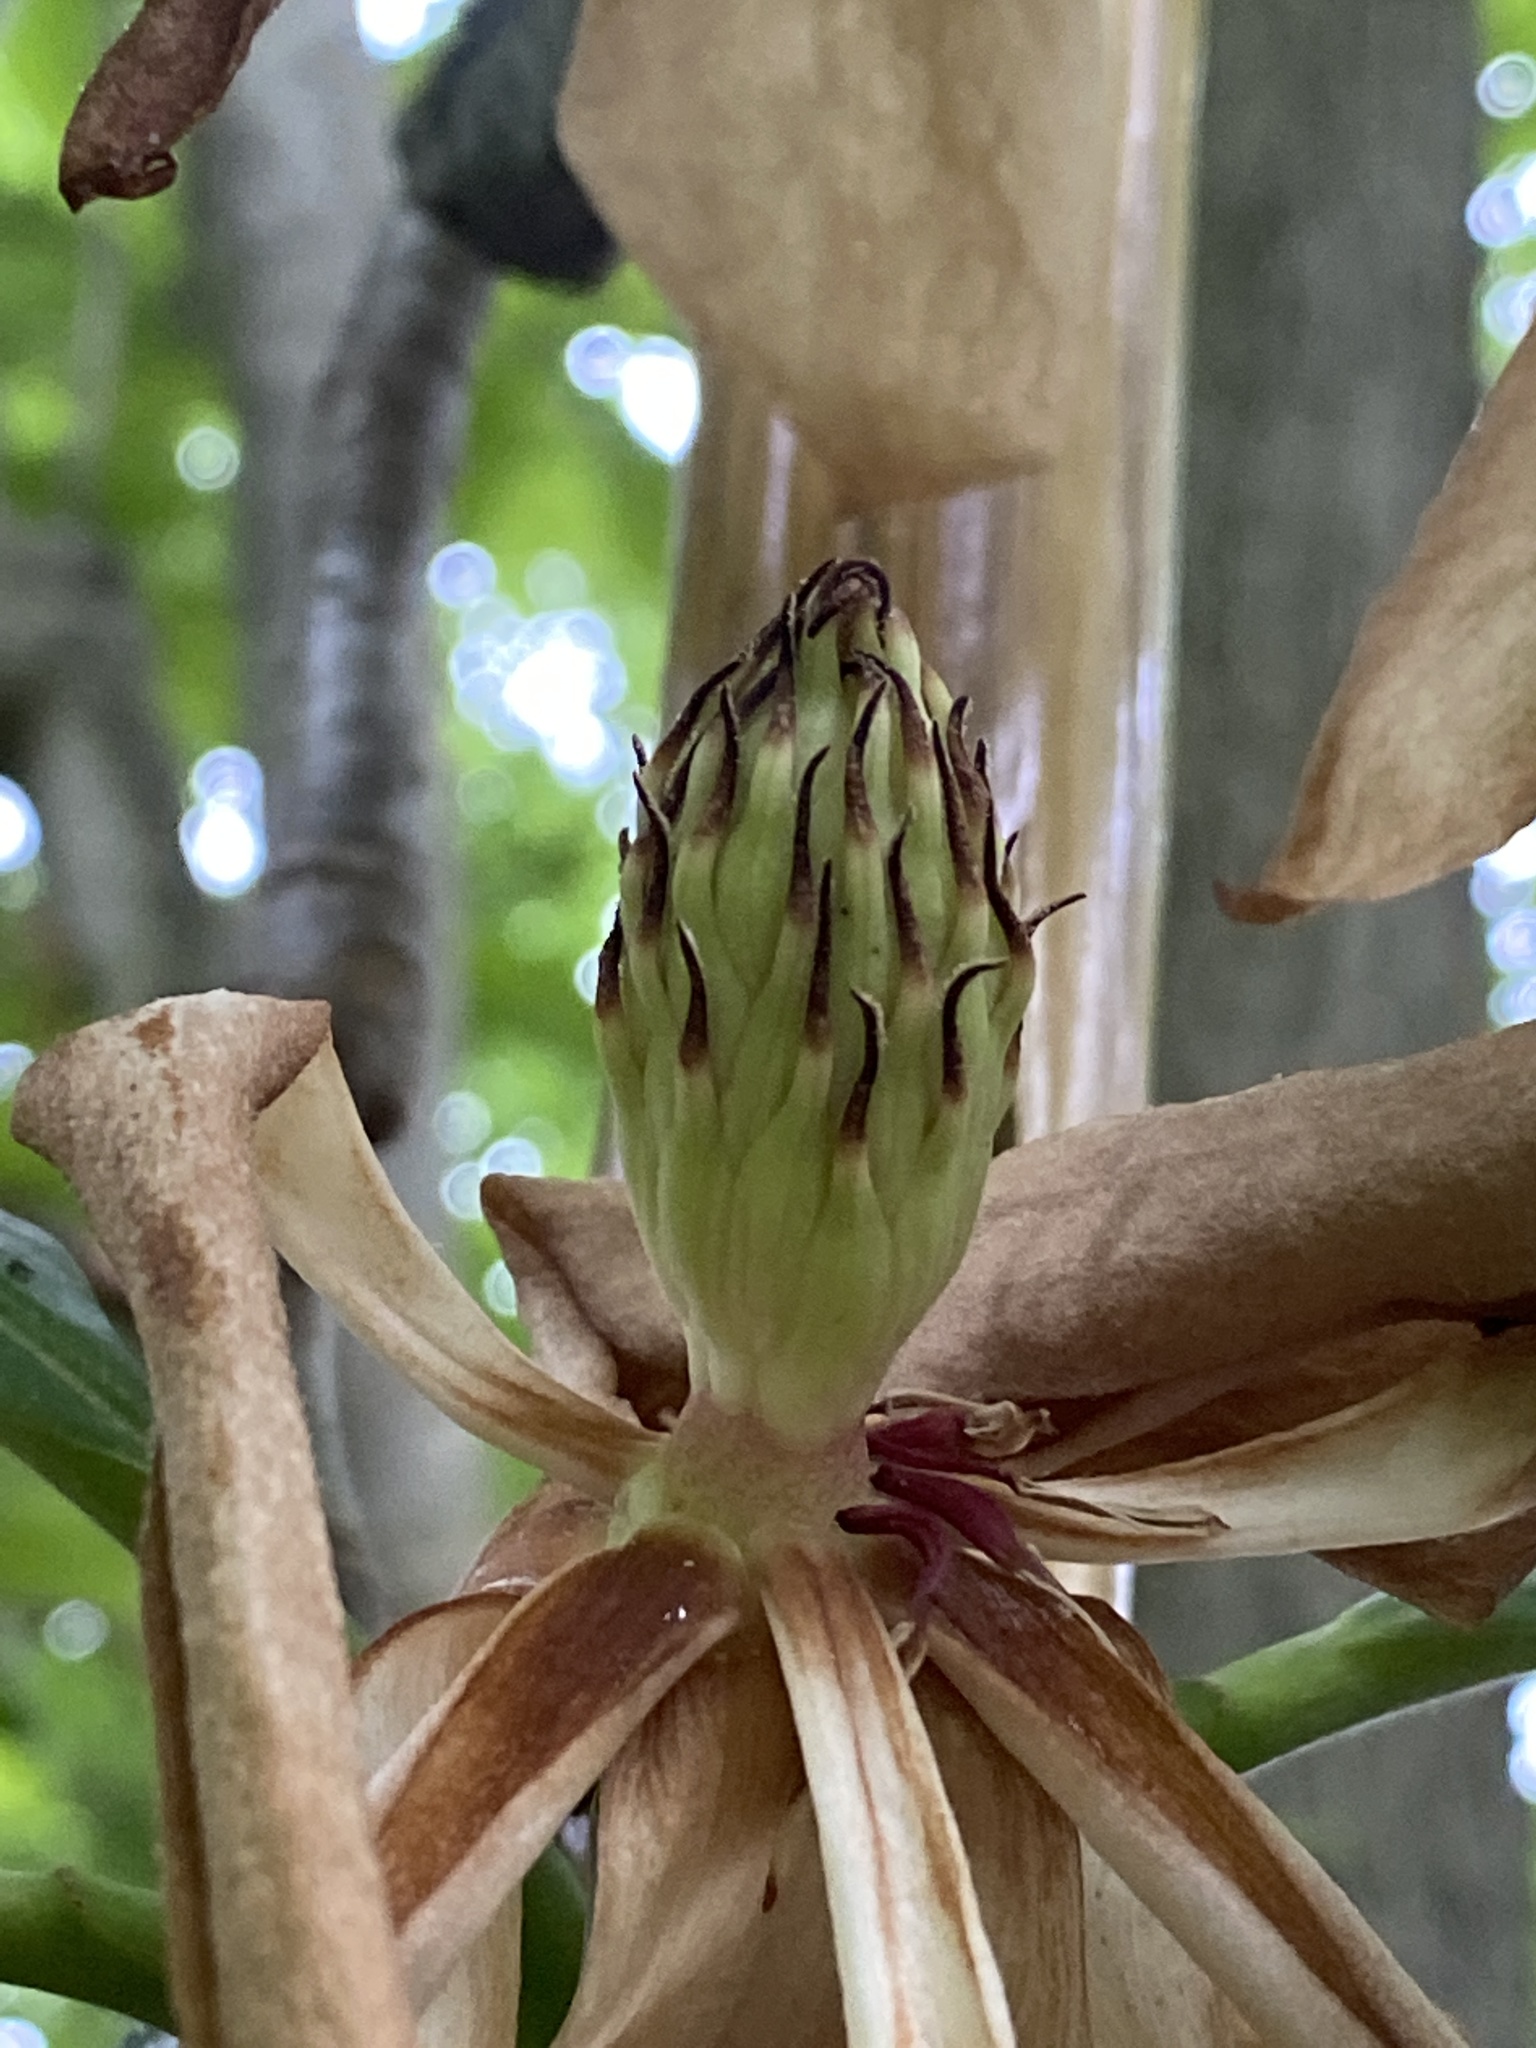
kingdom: Plantae
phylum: Tracheophyta
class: Magnoliopsida
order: Magnoliales
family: Magnoliaceae
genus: Magnolia
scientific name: Magnolia tripetala
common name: Umbrella magnolia
